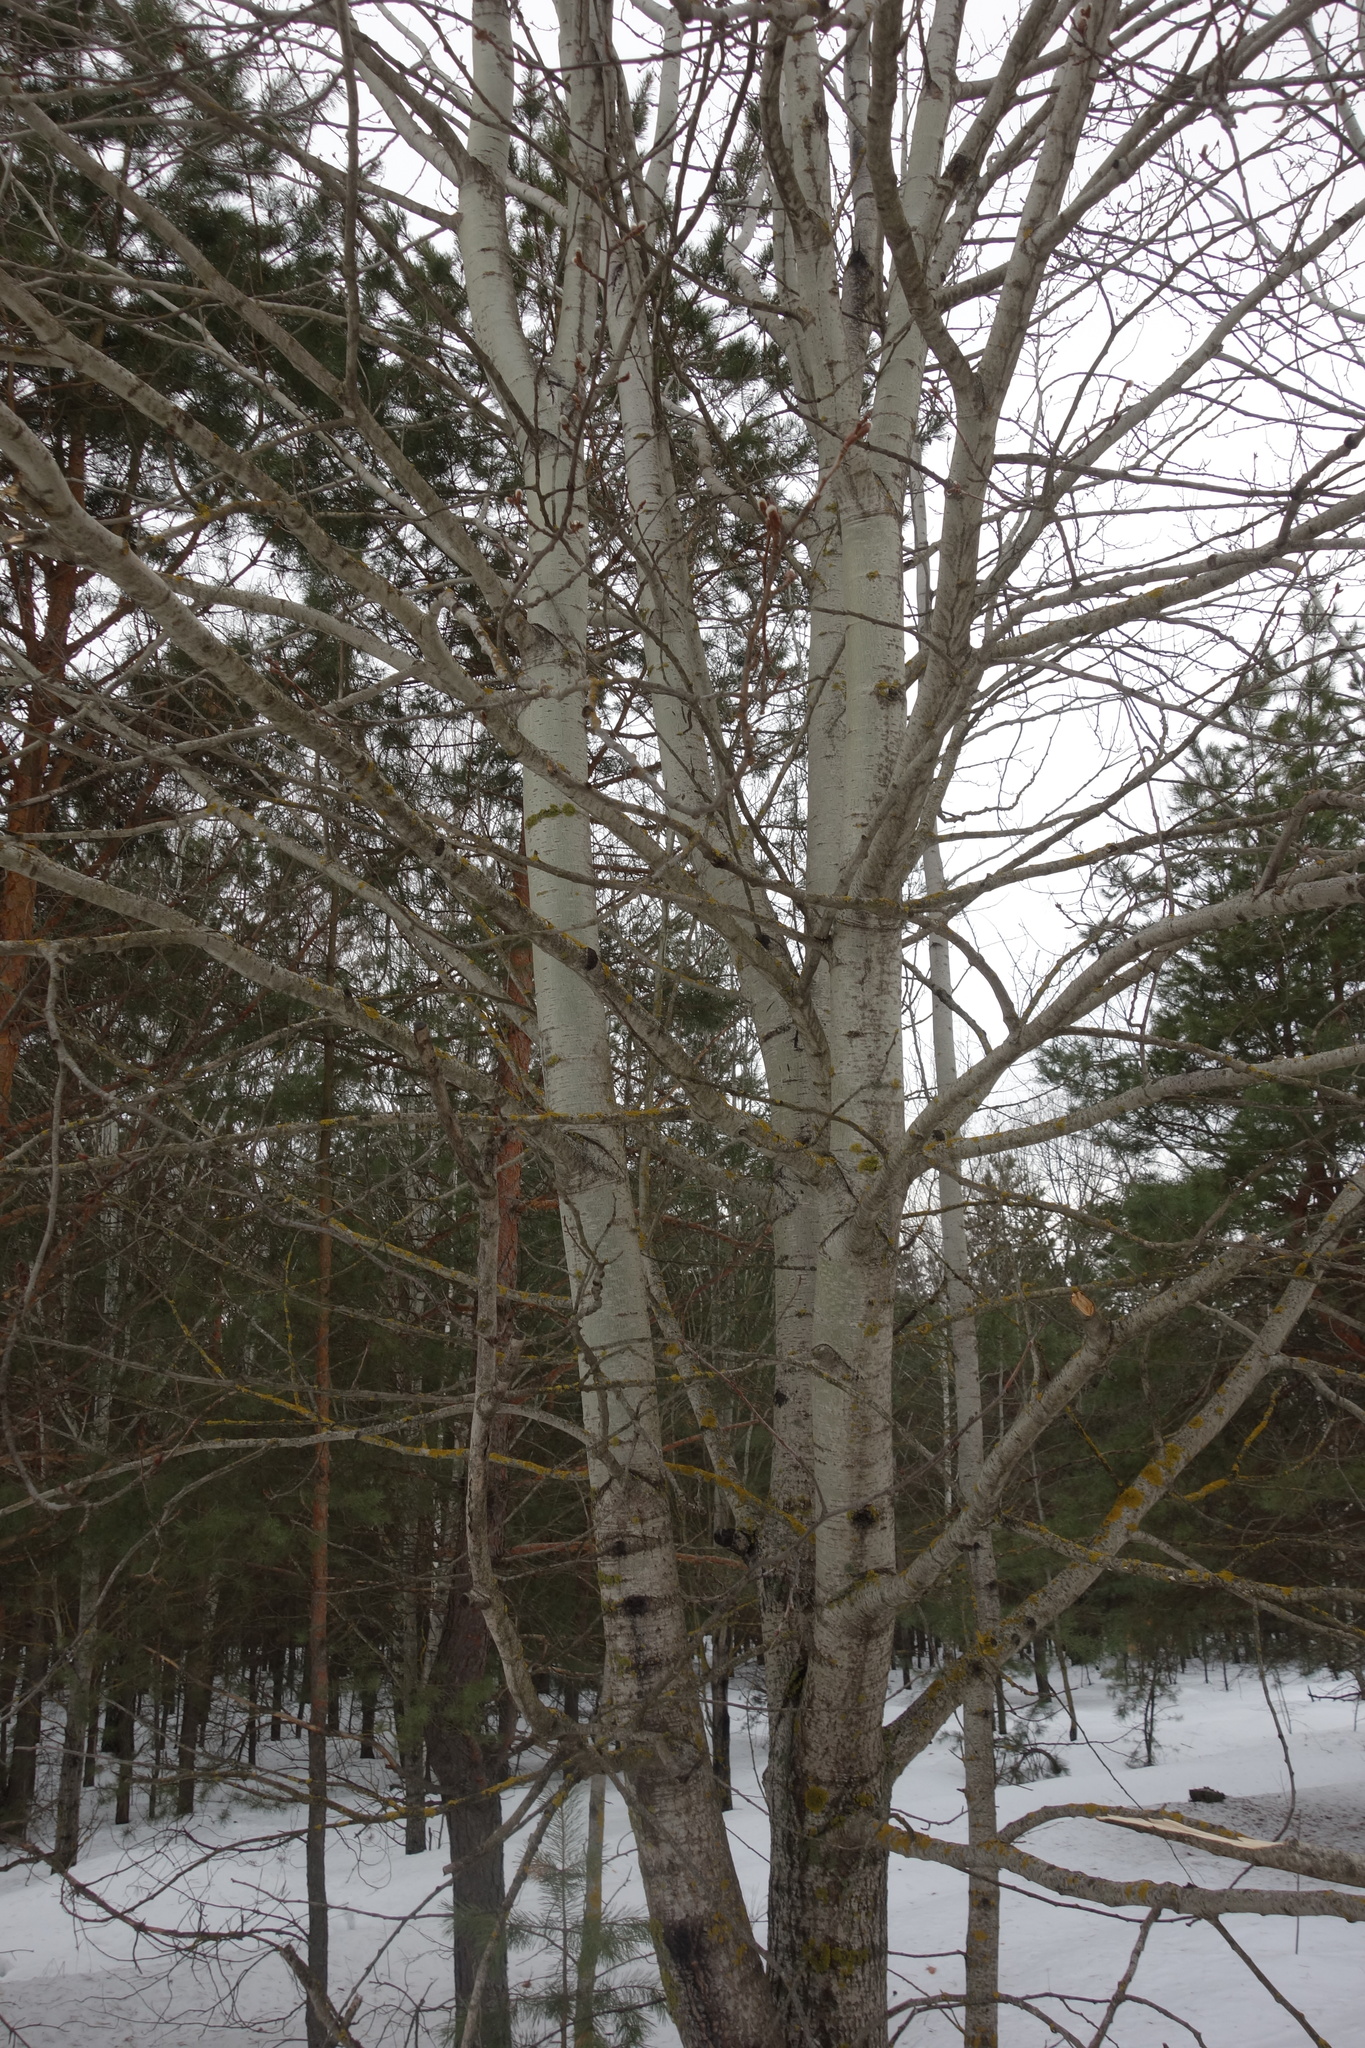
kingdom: Plantae
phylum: Tracheophyta
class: Magnoliopsida
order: Malpighiales
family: Salicaceae
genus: Populus
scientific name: Populus tremula
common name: European aspen
